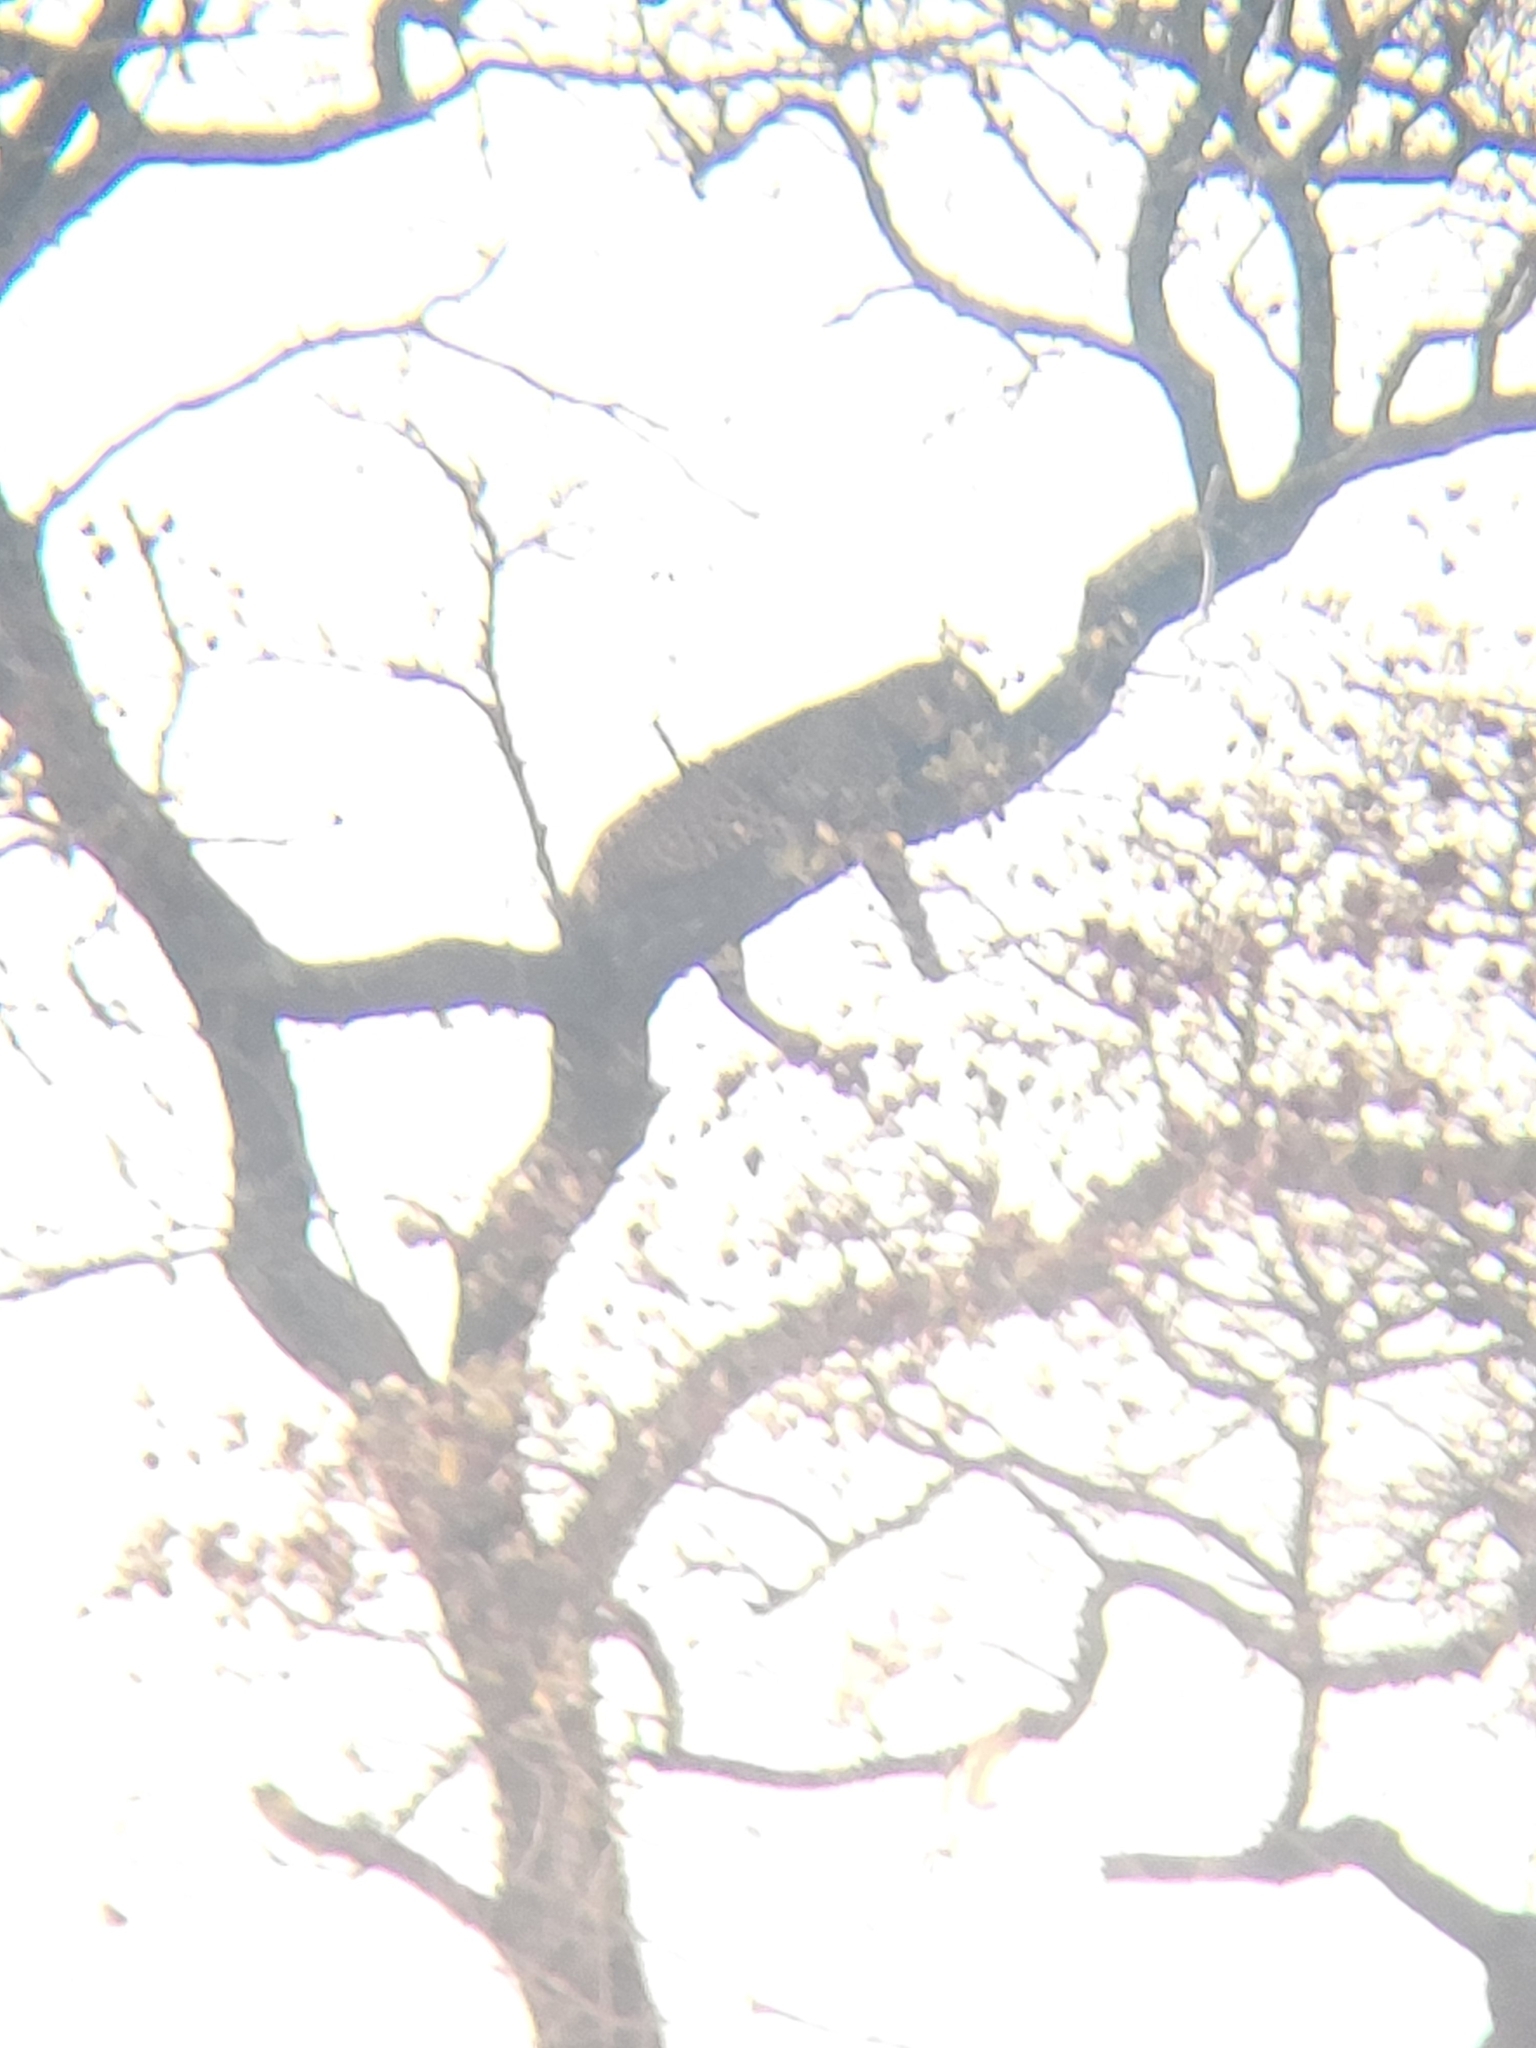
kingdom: Animalia
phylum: Chordata
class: Mammalia
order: Carnivora
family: Felidae
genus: Panthera
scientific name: Panthera pardus
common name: Leopard
